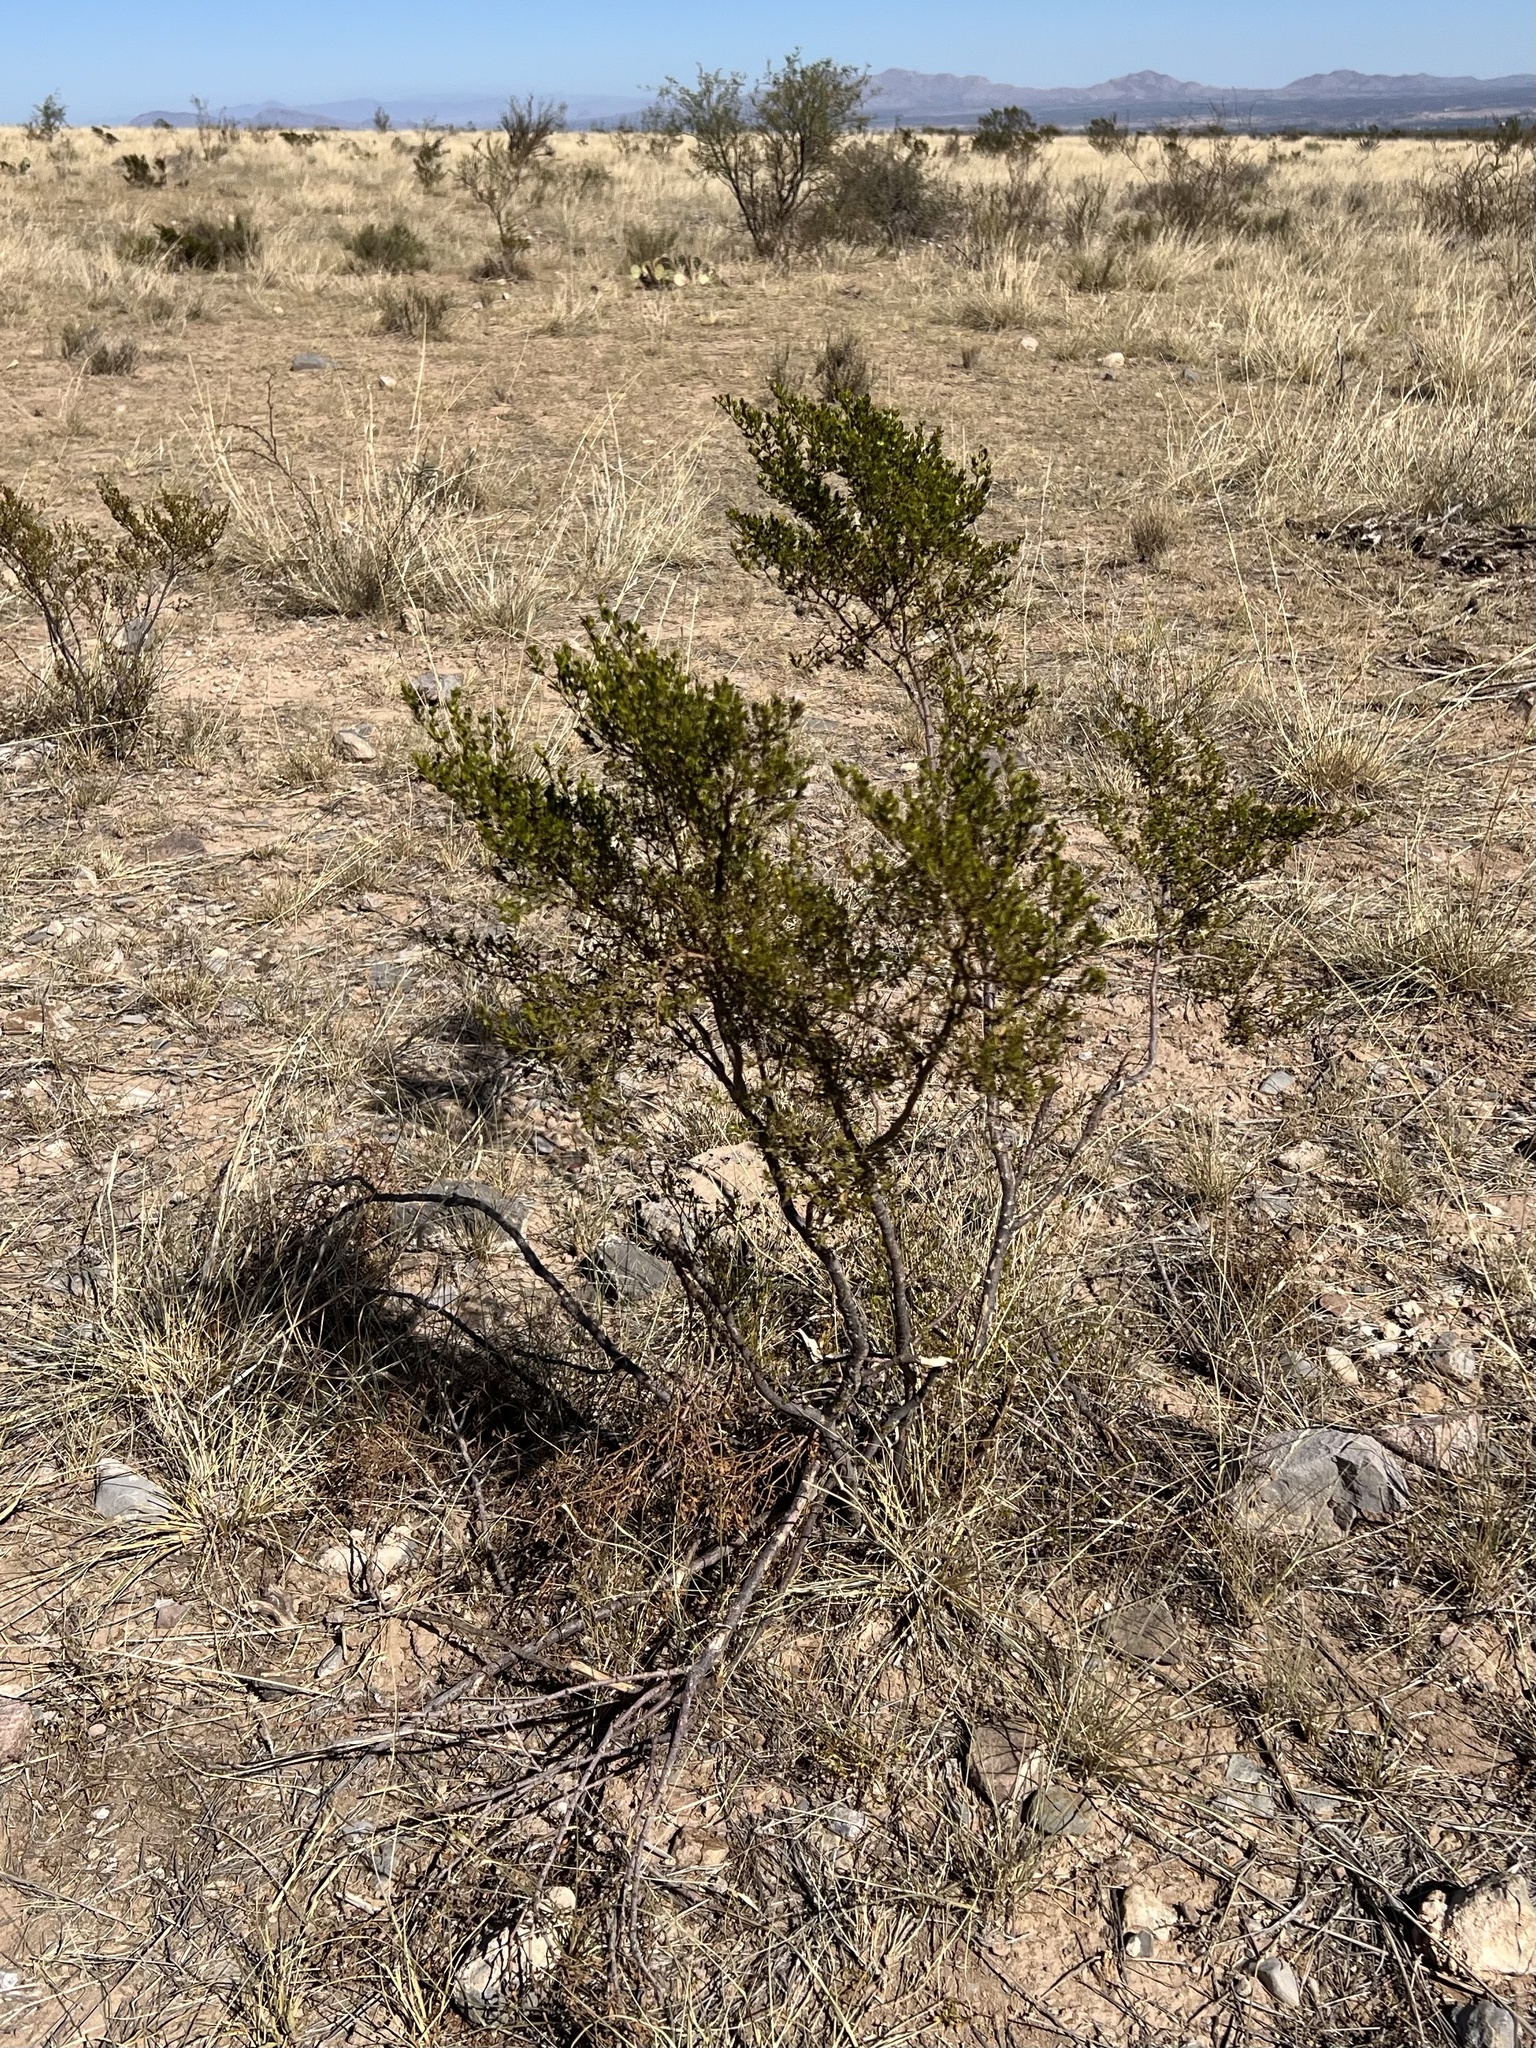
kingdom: Plantae
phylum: Tracheophyta
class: Magnoliopsida
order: Zygophyllales
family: Zygophyllaceae
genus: Larrea
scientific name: Larrea tridentata
